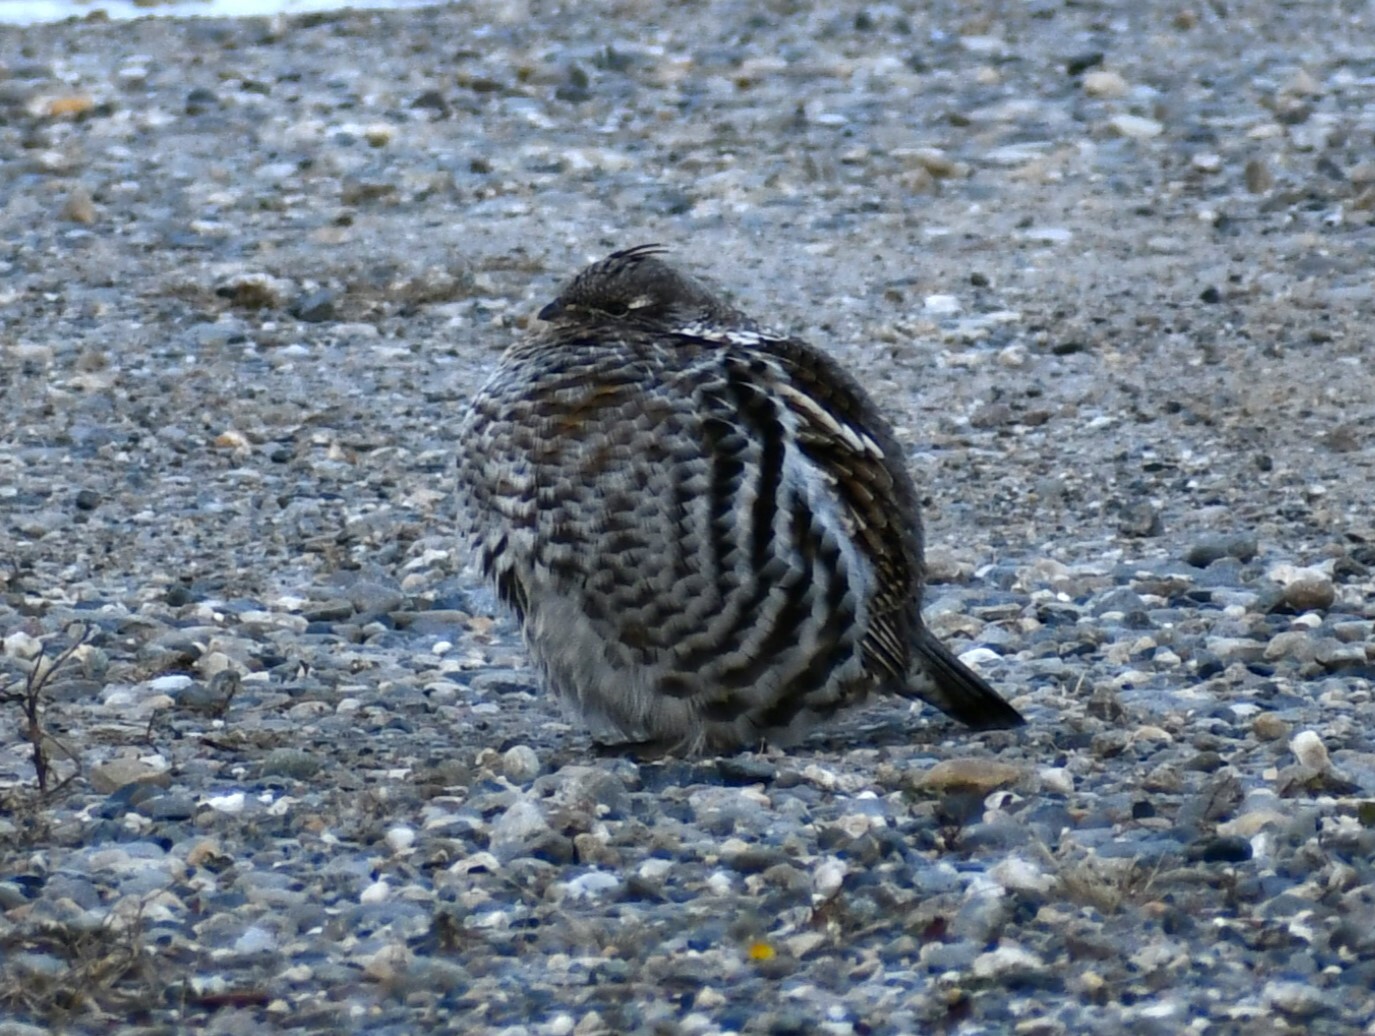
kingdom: Animalia
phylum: Chordata
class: Aves
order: Galliformes
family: Phasianidae
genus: Bonasa
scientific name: Bonasa umbellus
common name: Ruffed grouse
